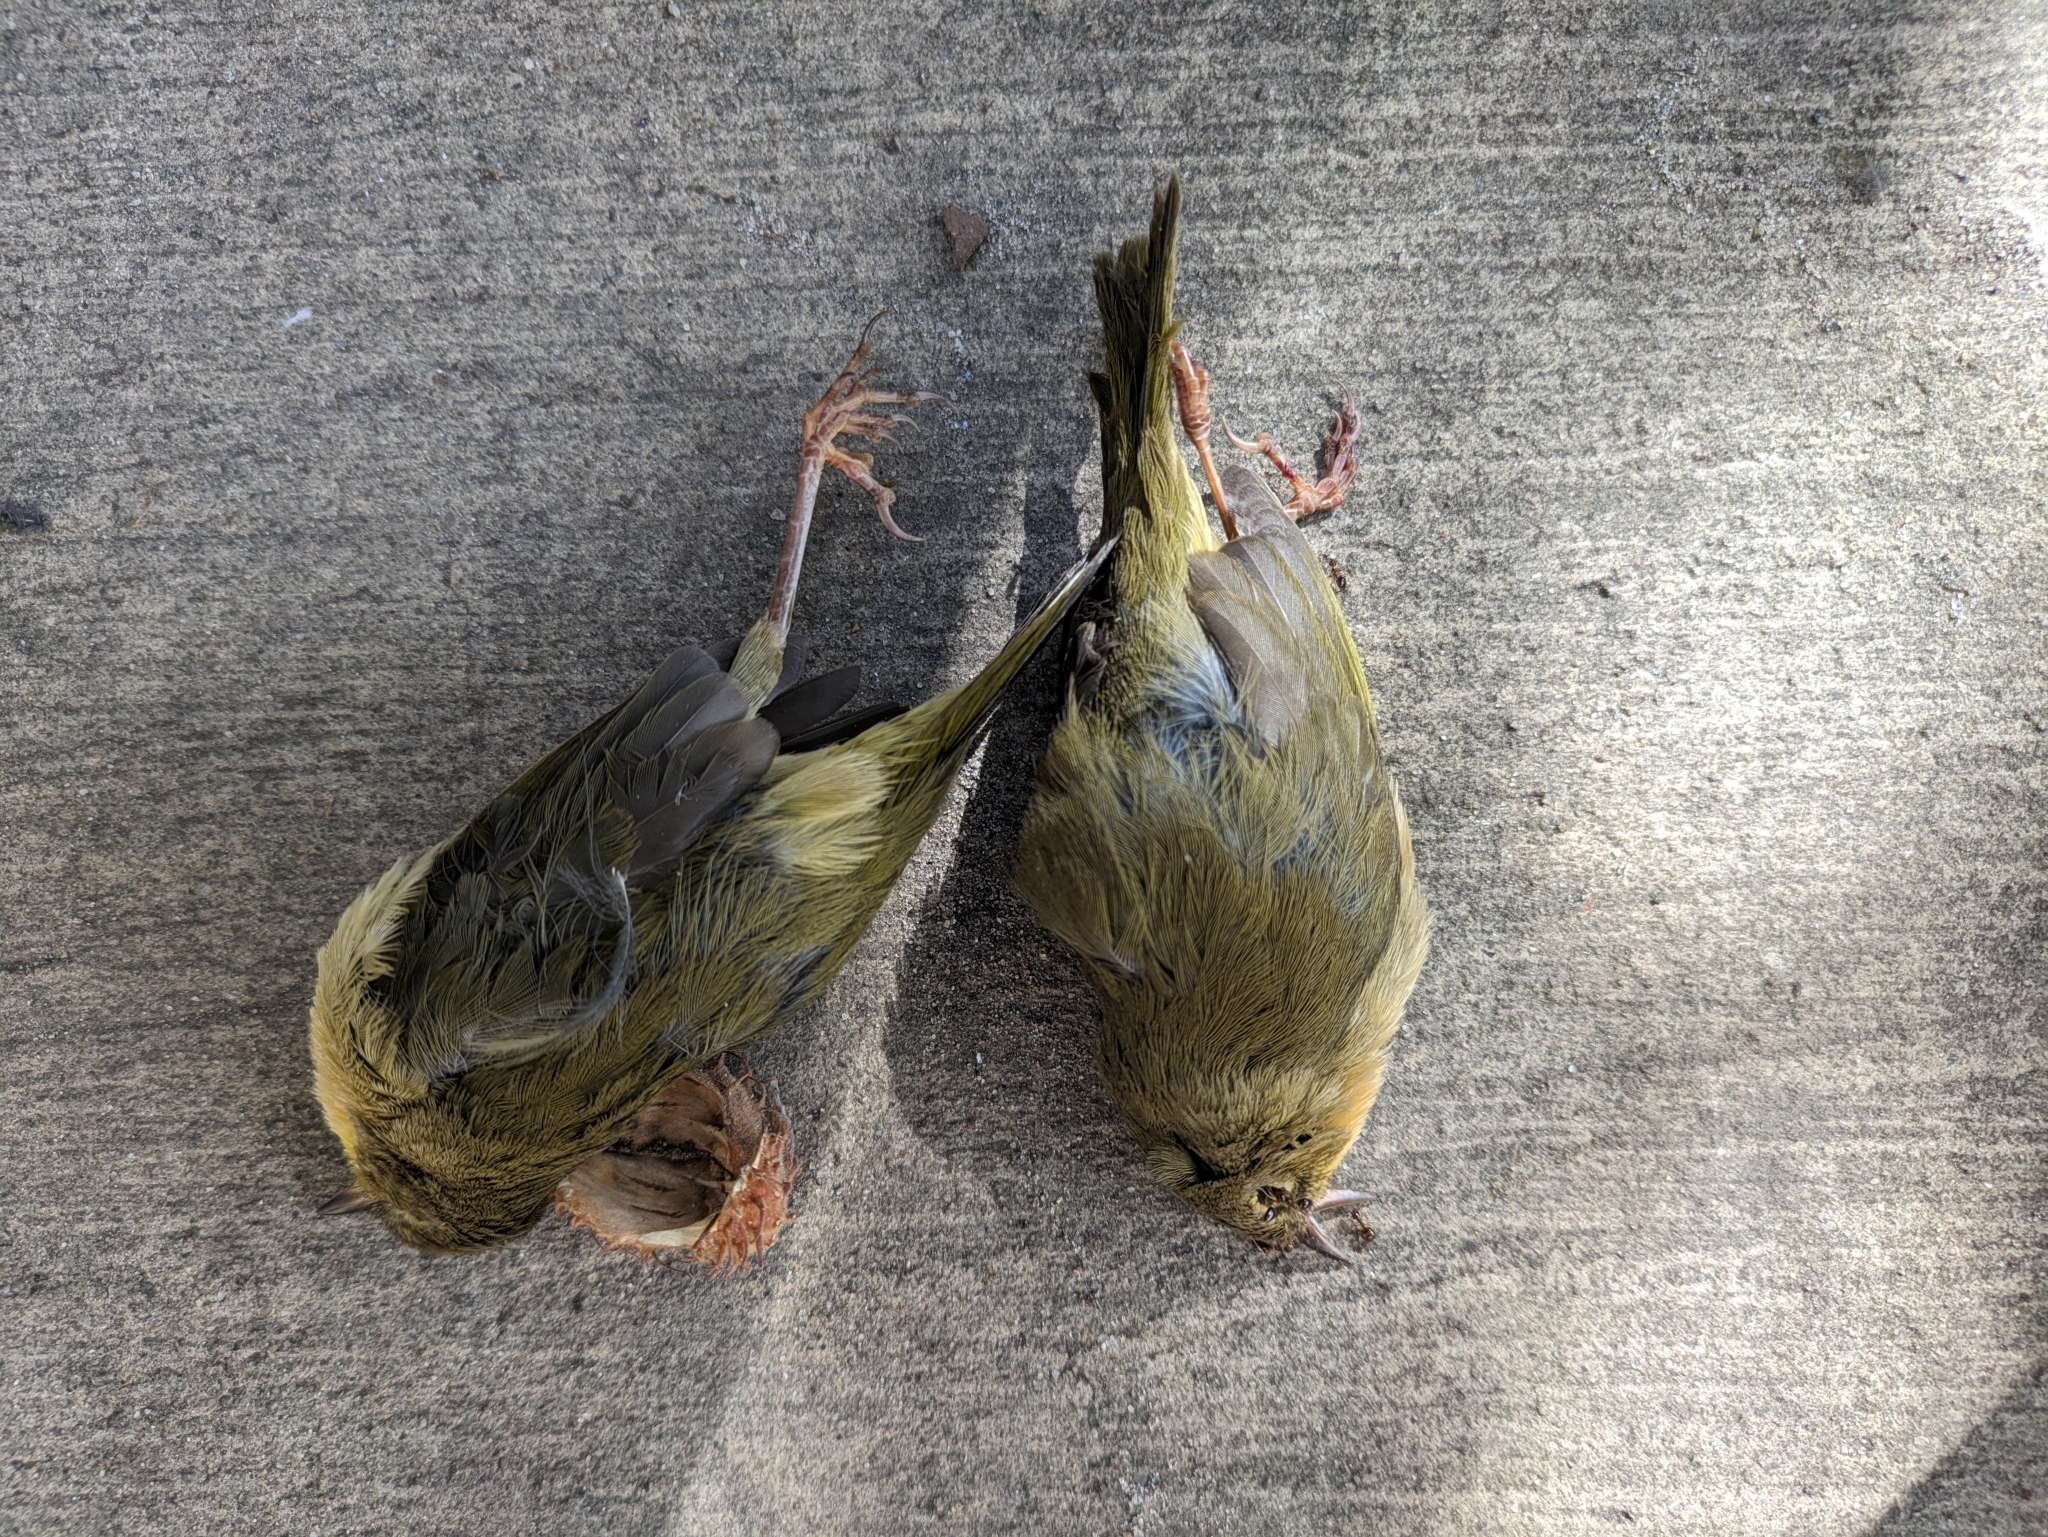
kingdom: Animalia
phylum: Chordata
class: Aves
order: Passeriformes
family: Parulidae
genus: Geothlypis
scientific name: Geothlypis trichas
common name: Common yellowthroat
